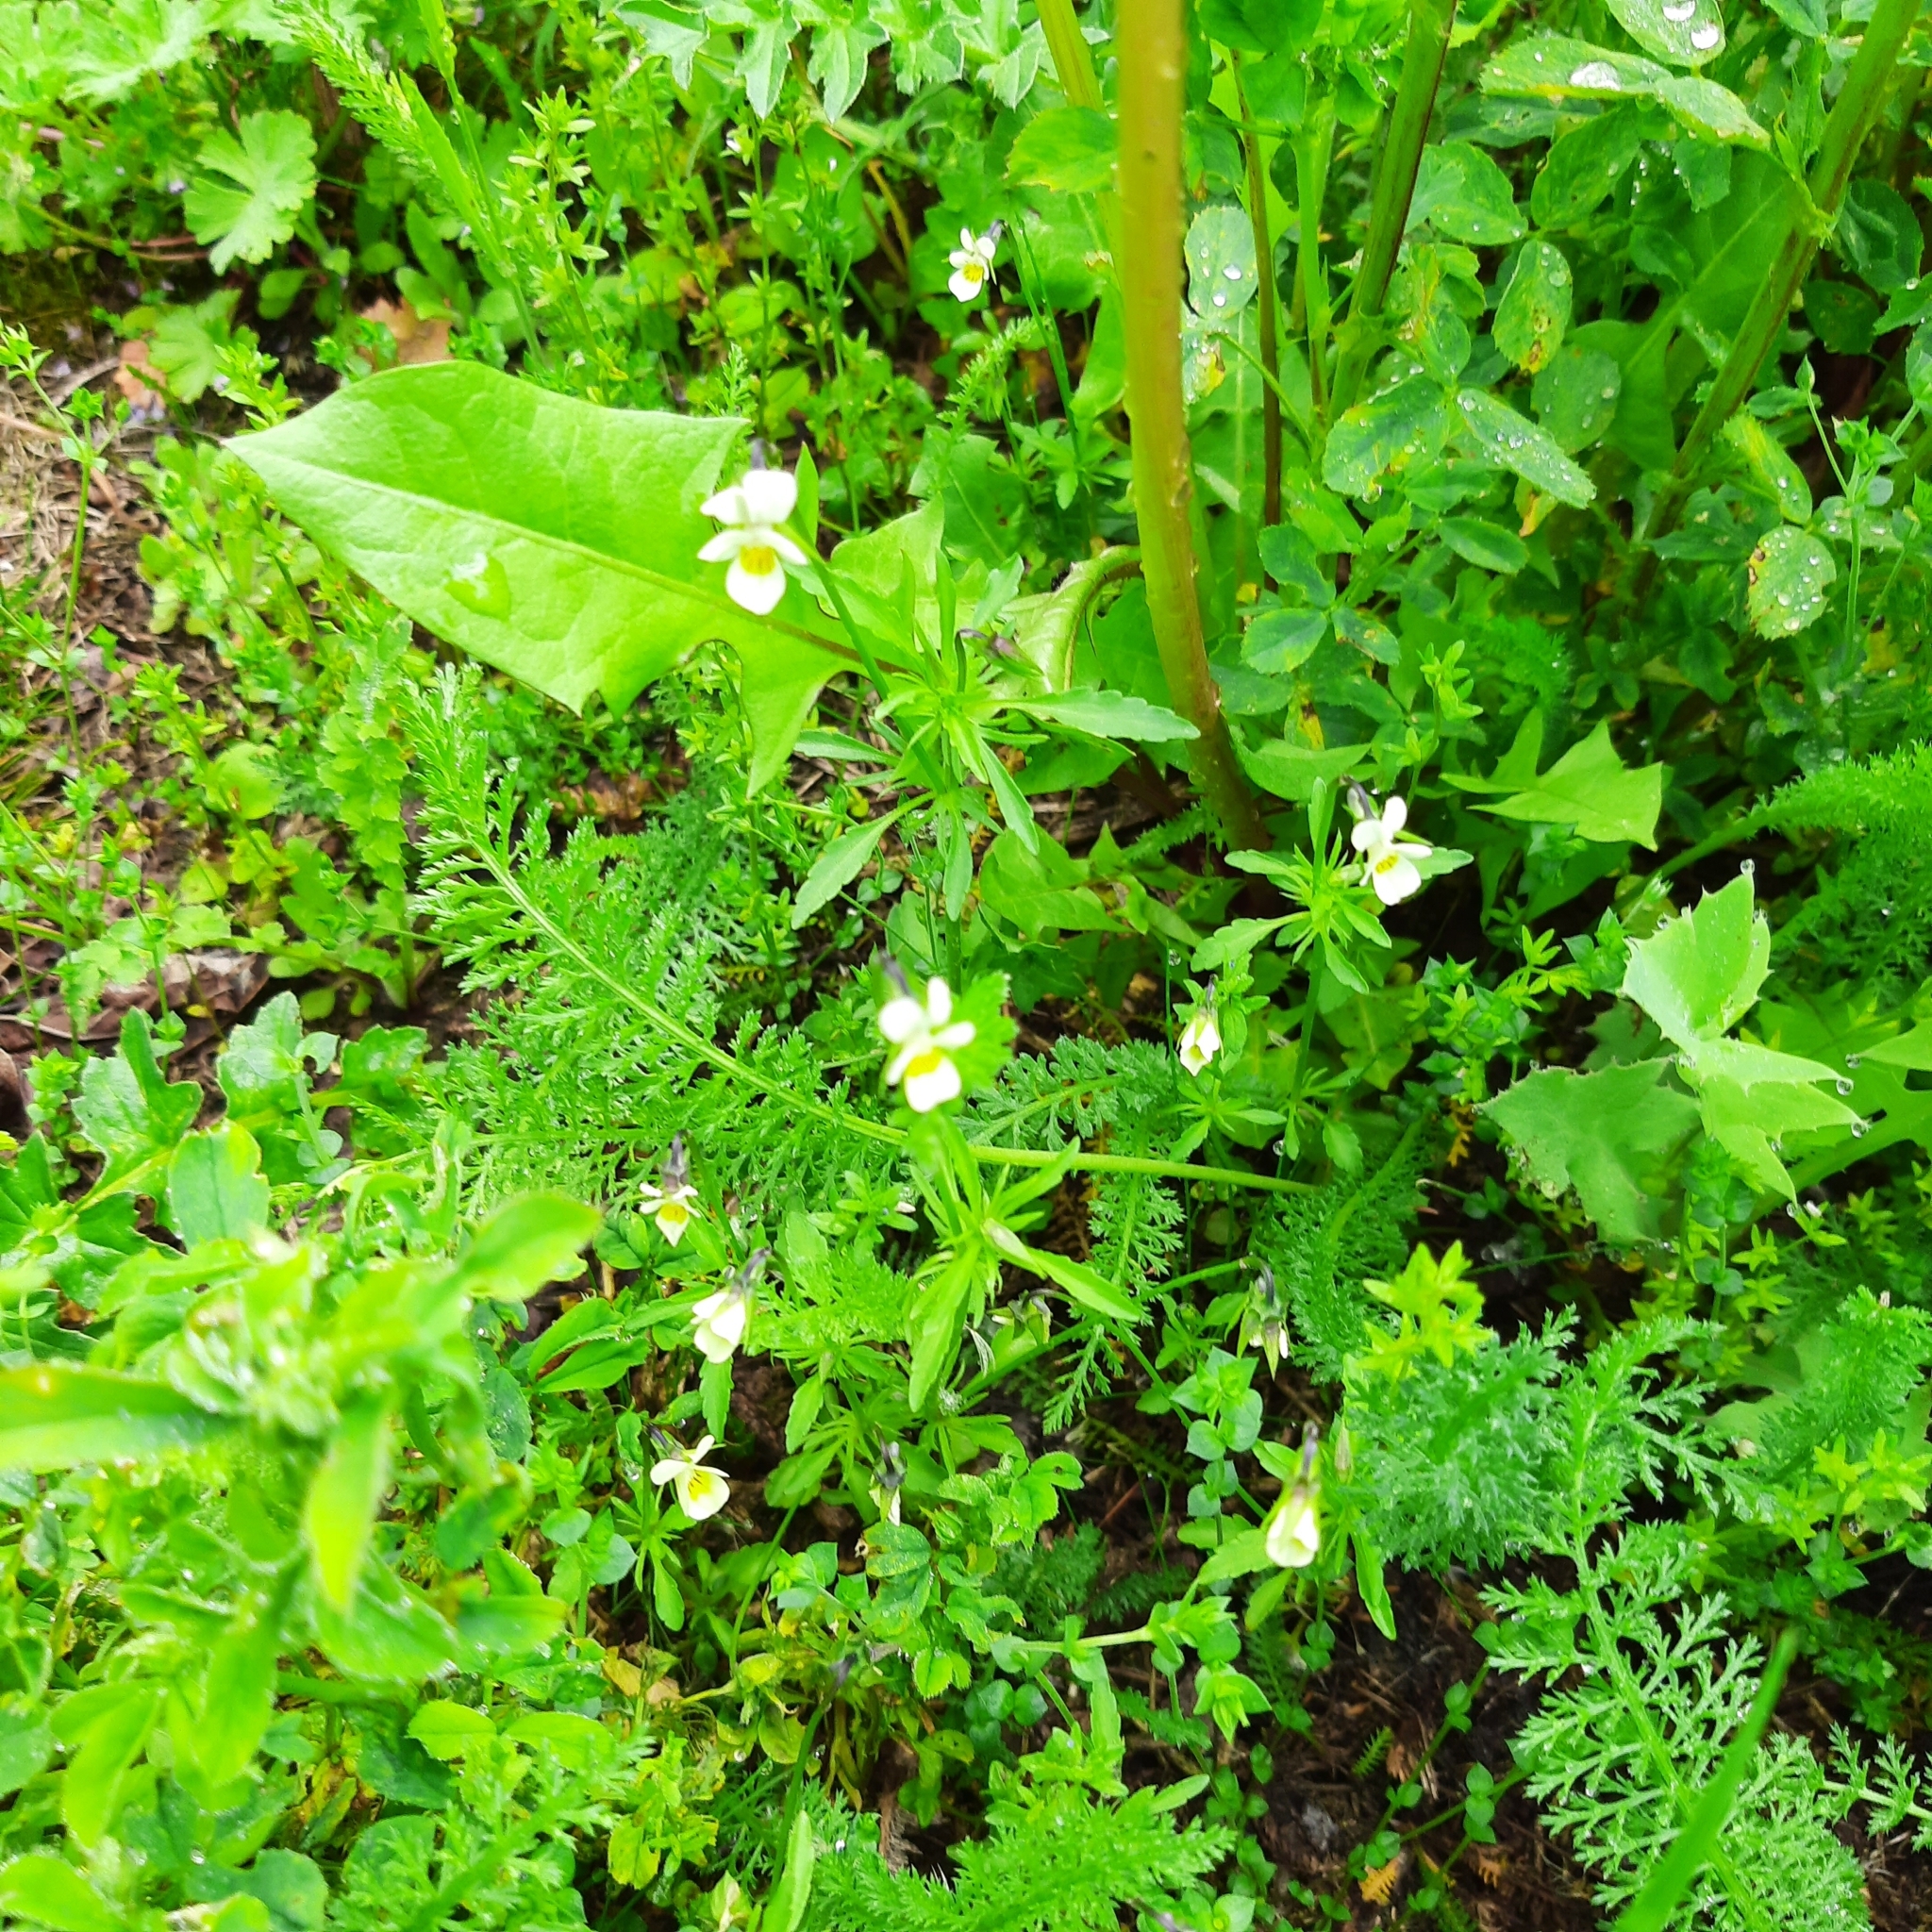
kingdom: Plantae
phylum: Tracheophyta
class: Magnoliopsida
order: Malpighiales
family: Violaceae
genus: Viola
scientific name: Viola arvensis
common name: Field pansy
